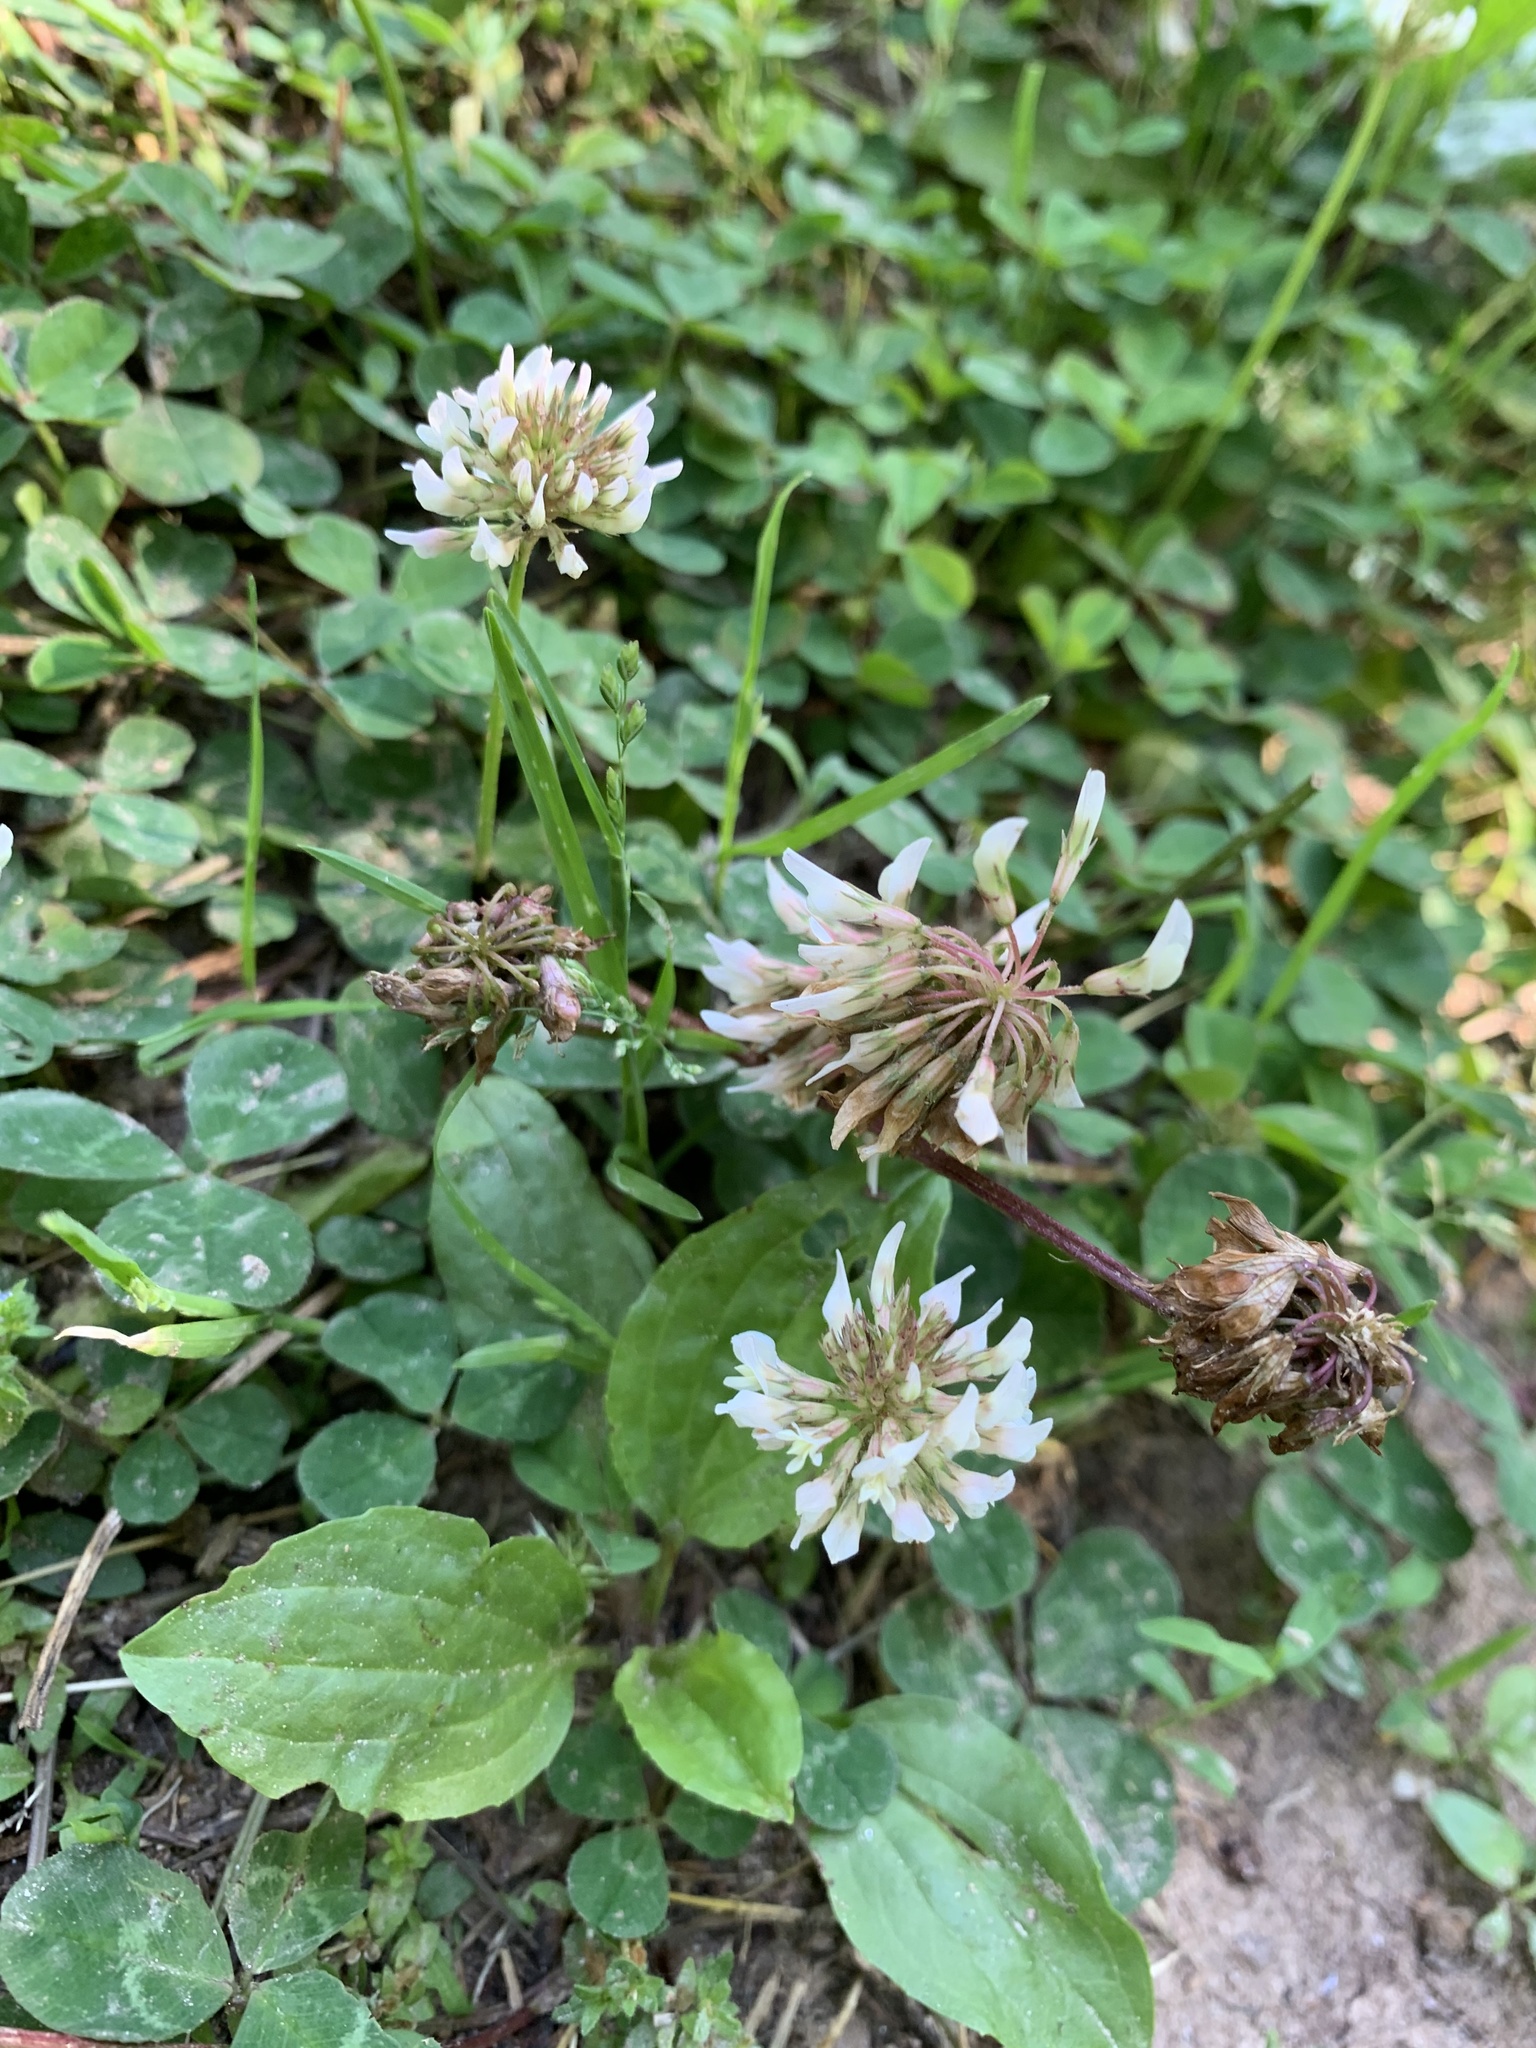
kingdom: Plantae
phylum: Tracheophyta
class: Magnoliopsida
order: Fabales
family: Fabaceae
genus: Trifolium
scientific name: Trifolium repens
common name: White clover
